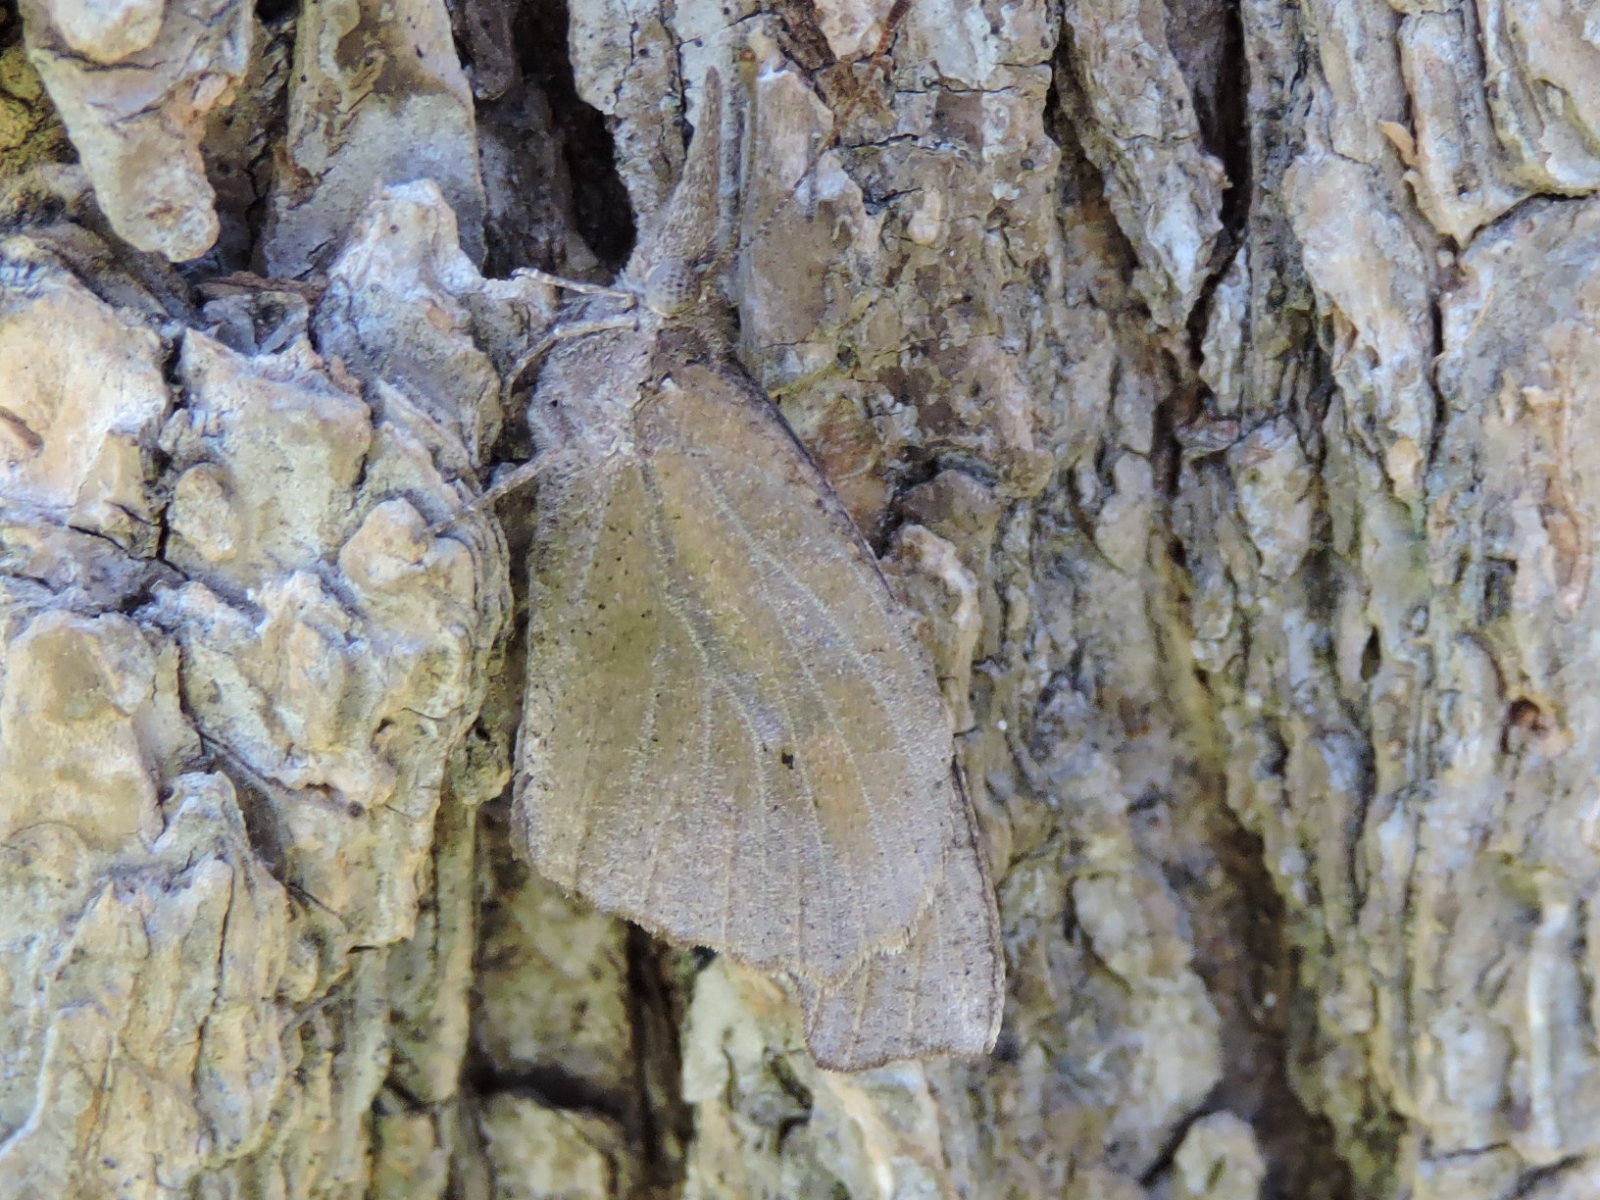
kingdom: Animalia
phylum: Arthropoda
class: Insecta
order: Lepidoptera
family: Nymphalidae
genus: Libytheana
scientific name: Libytheana carinenta
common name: American snout
